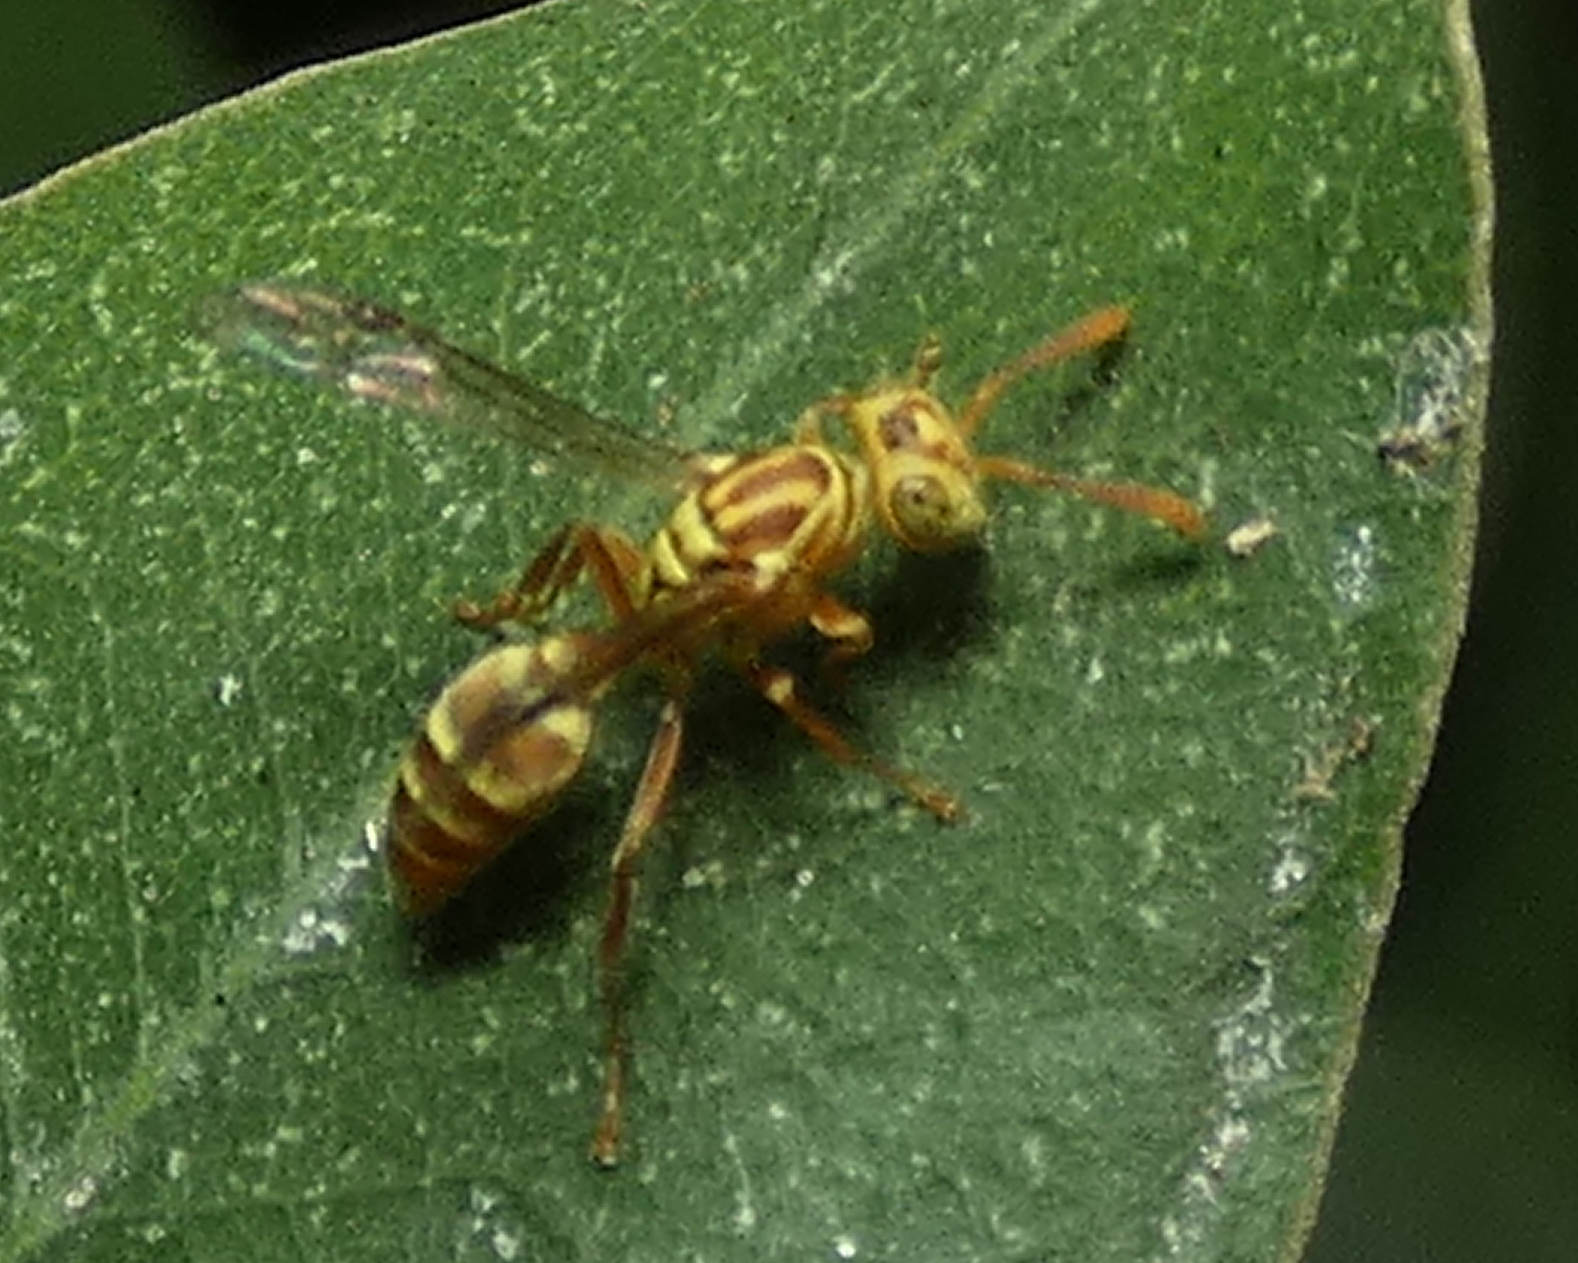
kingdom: Animalia
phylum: Arthropoda
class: Insecta
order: Hymenoptera
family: Vespidae
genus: Protopolybia
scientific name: Protopolybia potiguara
